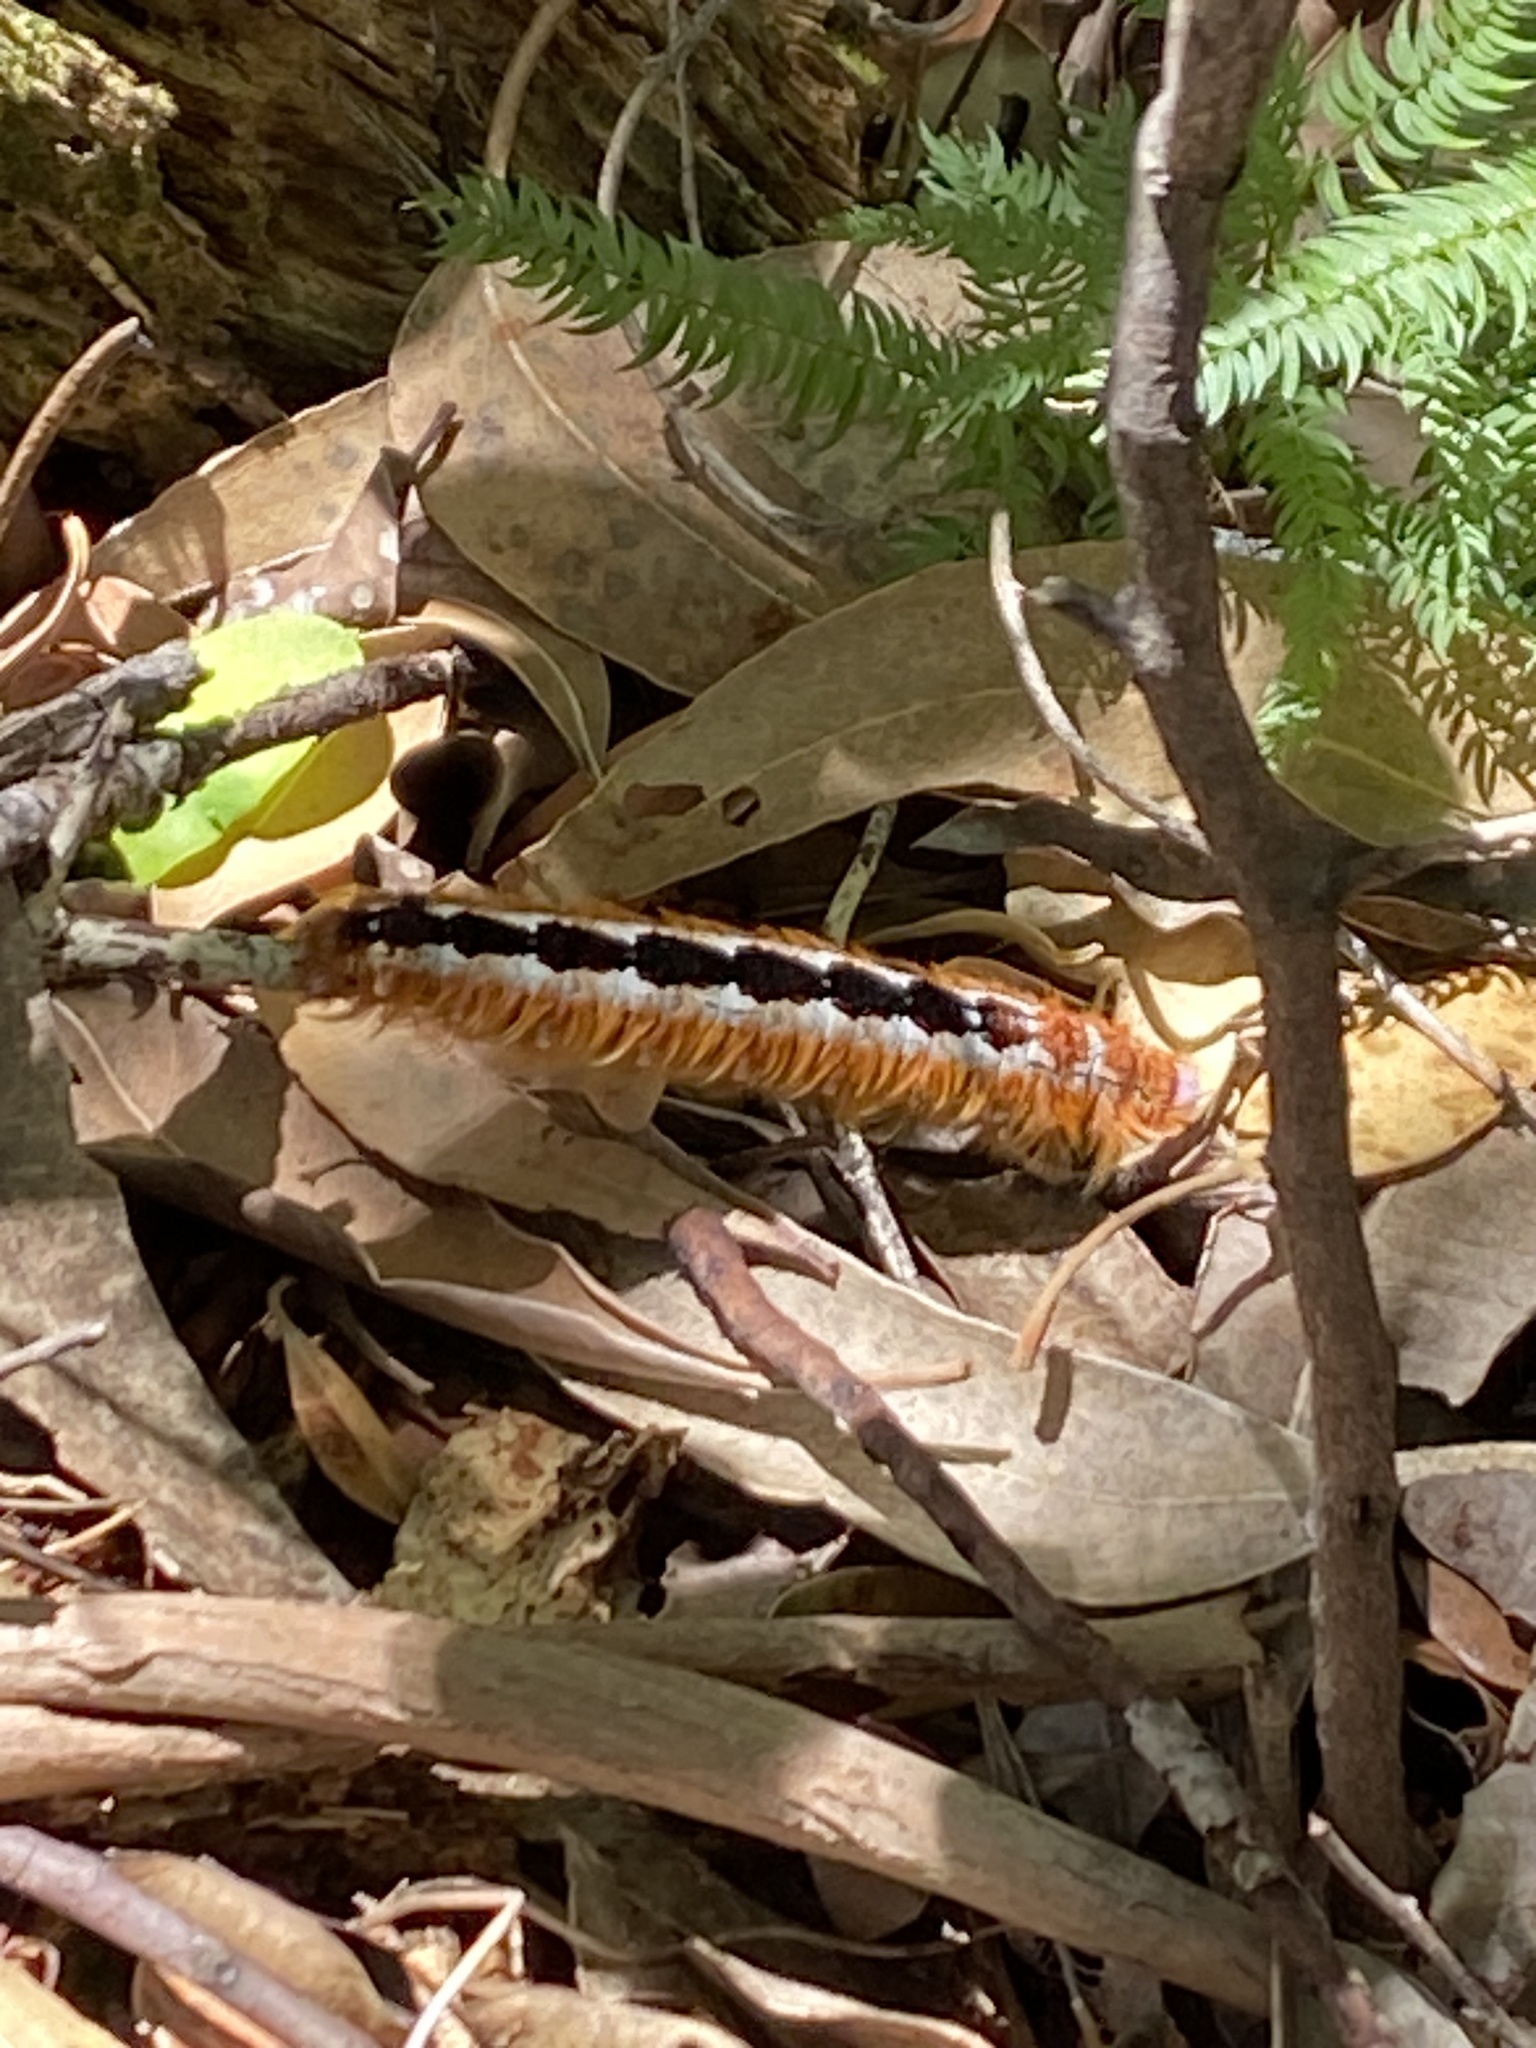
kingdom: Animalia
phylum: Arthropoda
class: Insecta
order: Lepidoptera
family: Lasiocampidae
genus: Eutricha
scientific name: Eutricha capensis
